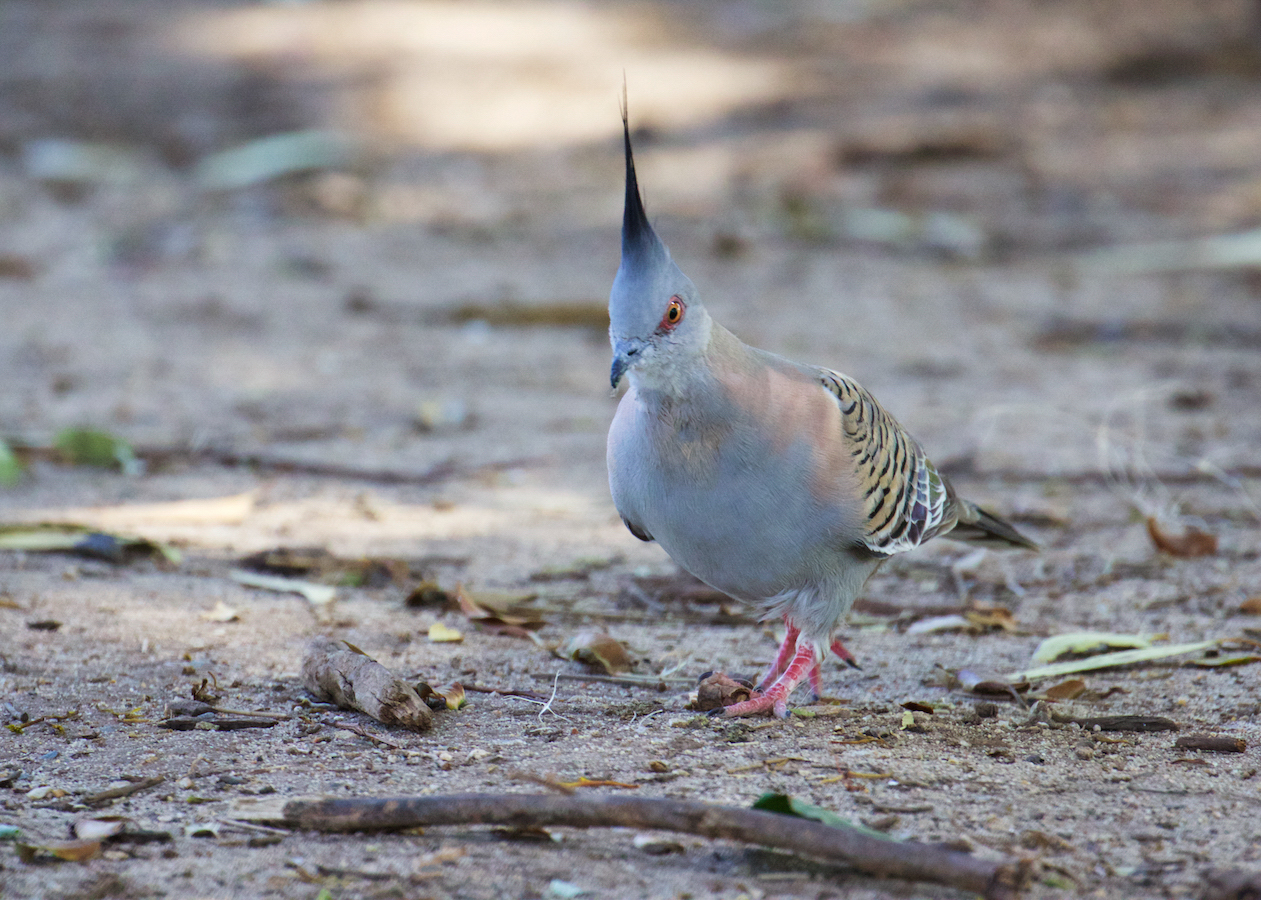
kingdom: Animalia
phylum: Chordata
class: Aves
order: Columbiformes
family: Columbidae
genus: Ocyphaps
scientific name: Ocyphaps lophotes
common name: Crested pigeon
